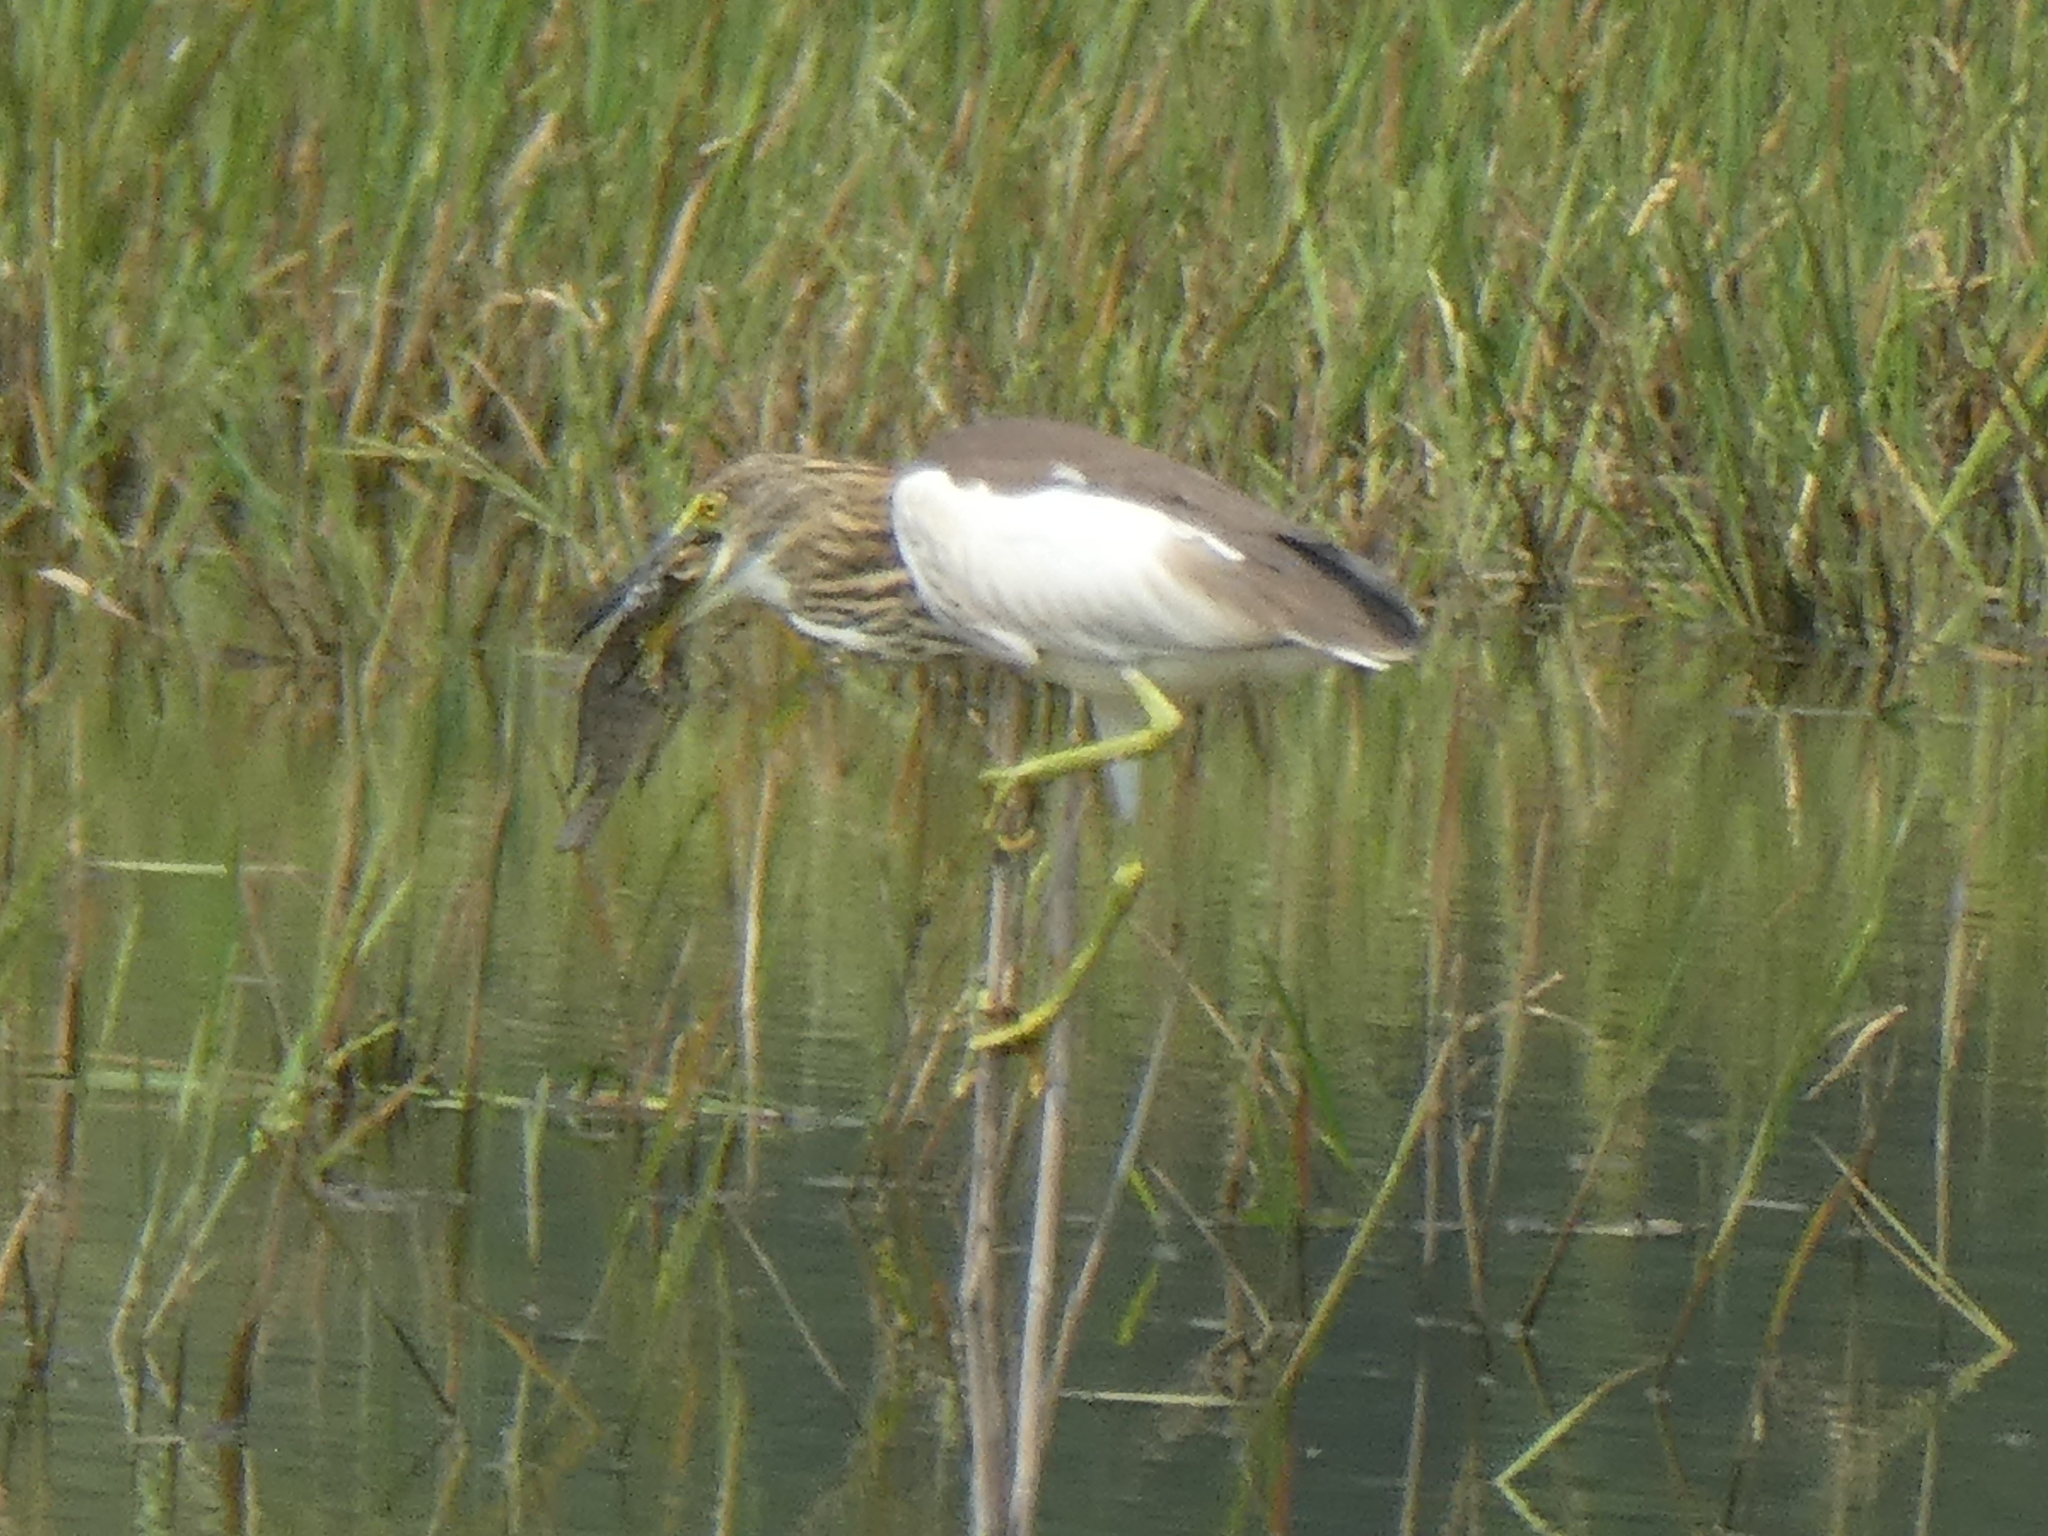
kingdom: Animalia
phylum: Chordata
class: Aves
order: Pelecaniformes
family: Ardeidae
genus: Ardeola
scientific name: Ardeola bacchus
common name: Chinese pond heron
